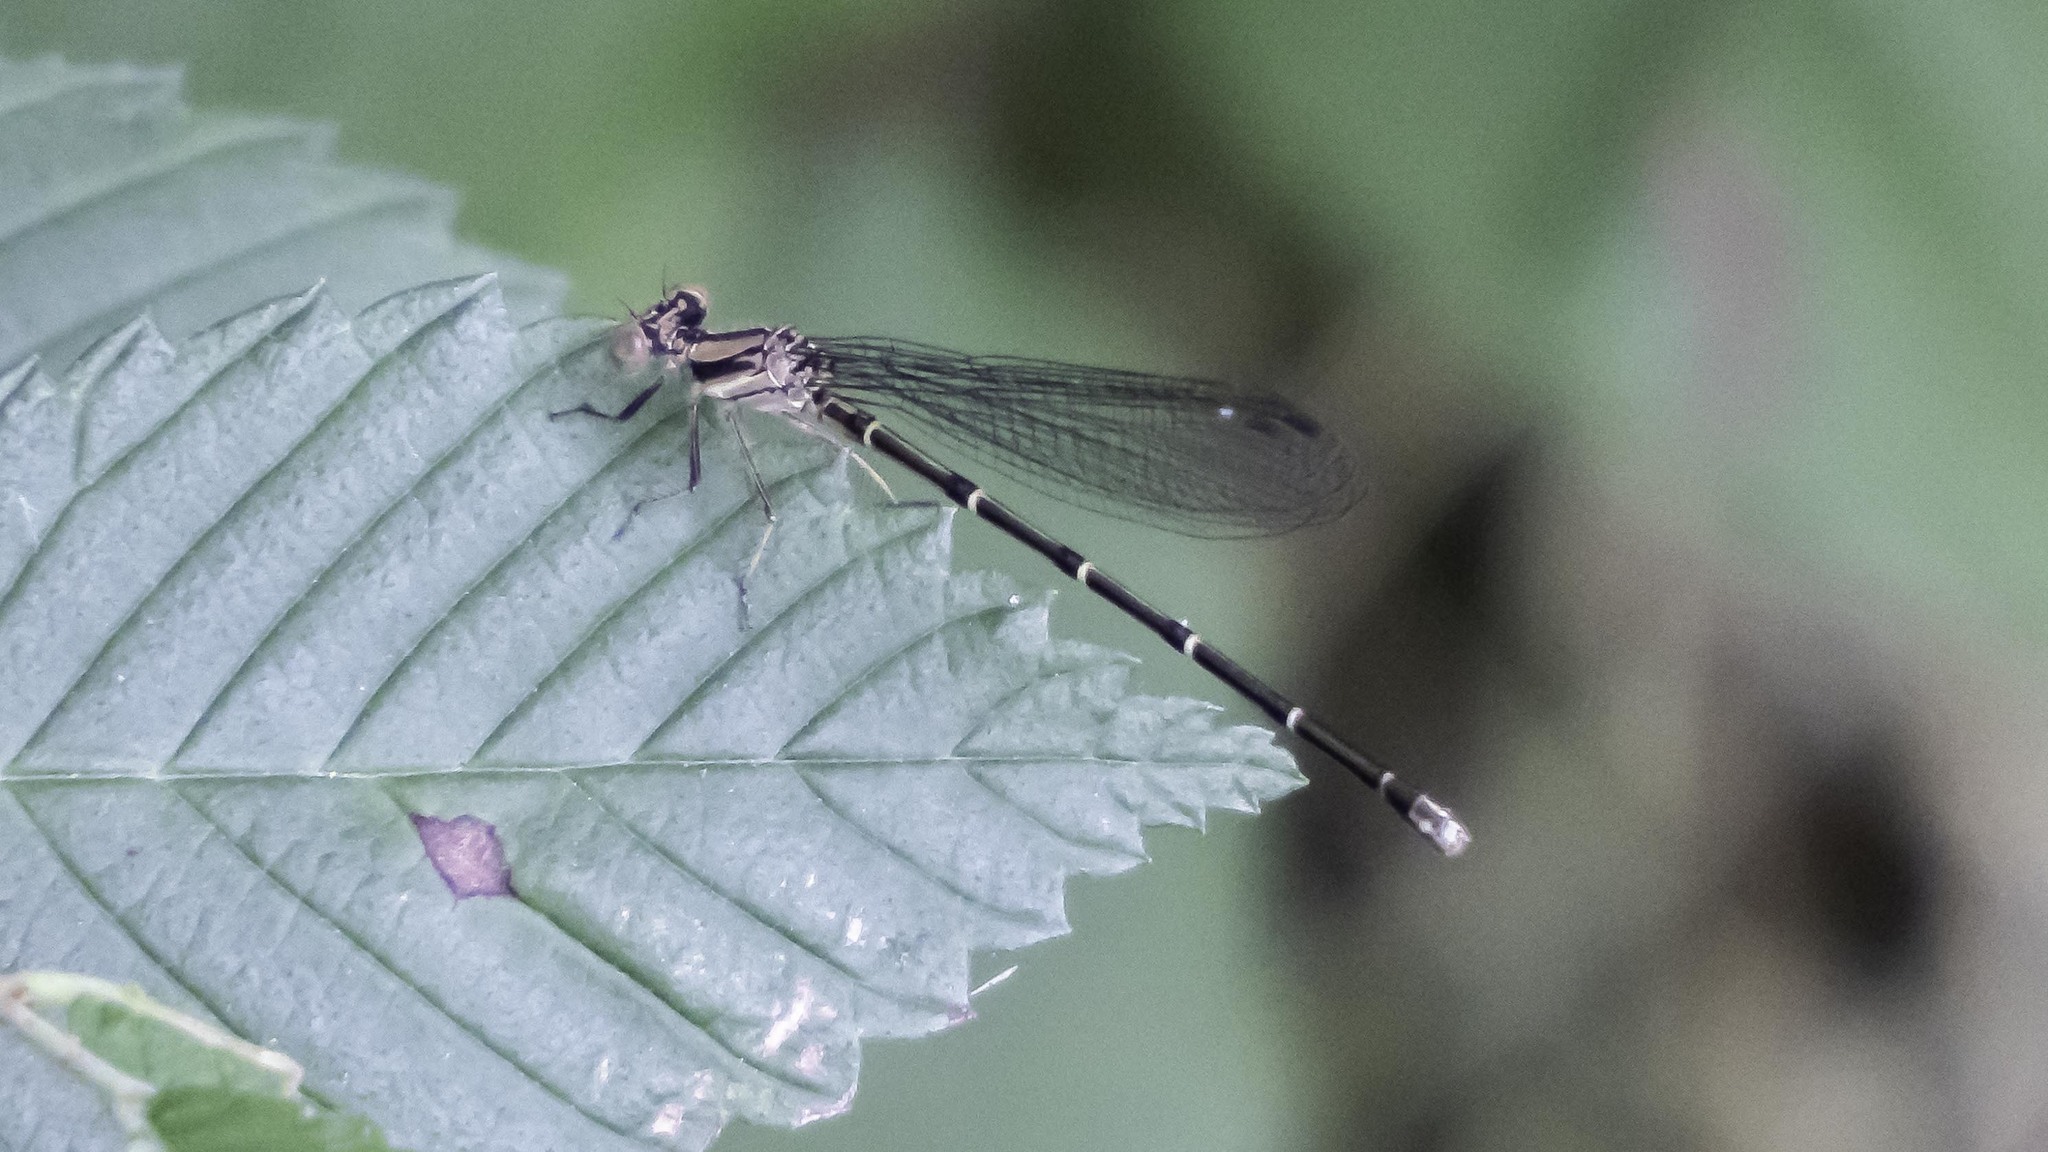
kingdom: Animalia
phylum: Arthropoda
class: Insecta
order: Odonata
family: Coenagrionidae
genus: Argia
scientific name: Argia tibialis
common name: Blue-tipped dancer
